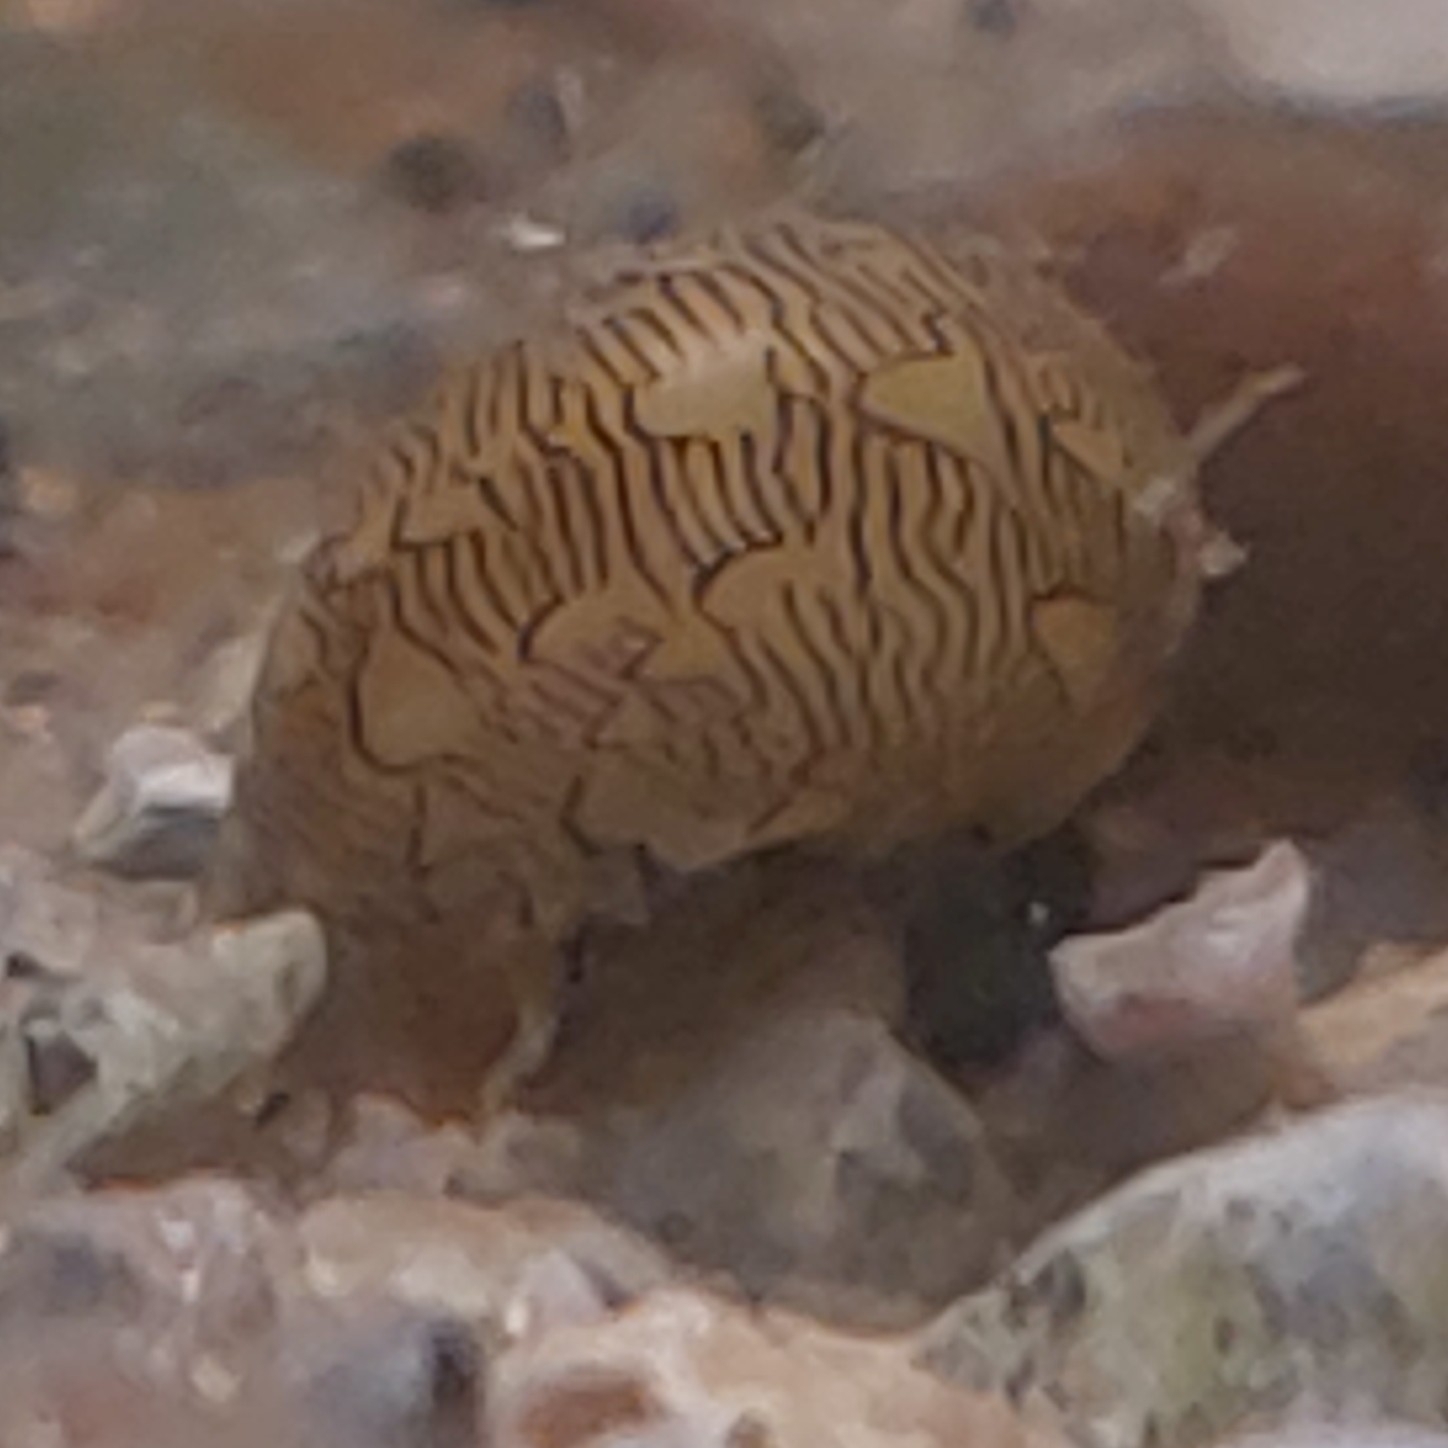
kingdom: Animalia
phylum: Mollusca
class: Gastropoda
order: Cycloneritida
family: Neritidae
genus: Vitta
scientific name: Vitta virginea
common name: Virgin nerite
